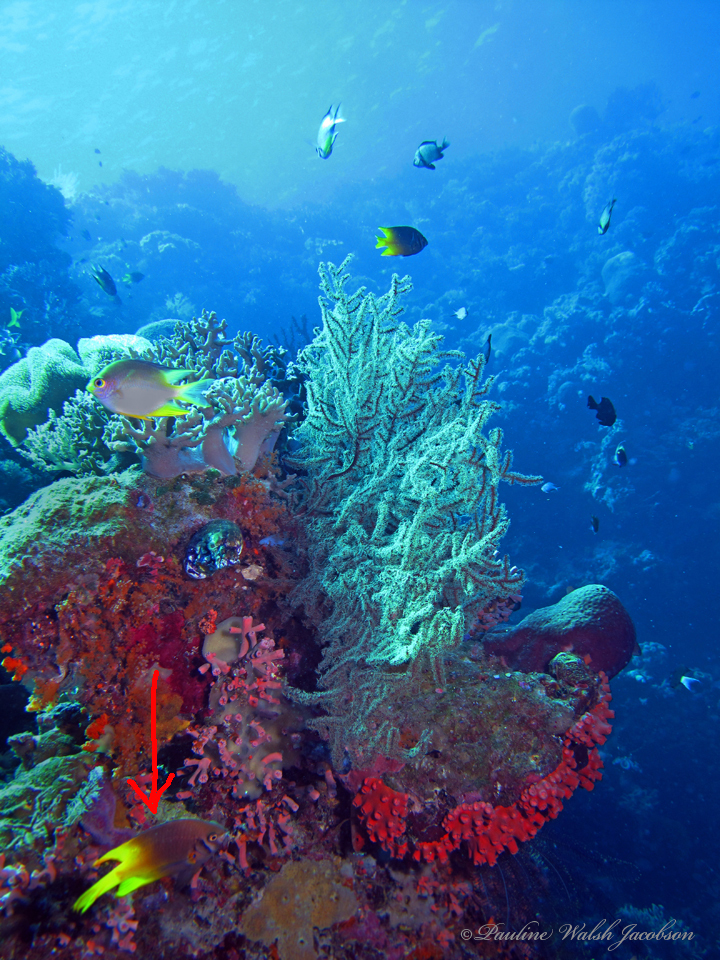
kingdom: Animalia
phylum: Chordata
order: Perciformes
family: Pomacentridae
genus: Neoglyphidodon
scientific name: Neoglyphidodon nigroris
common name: Behn's damsel
